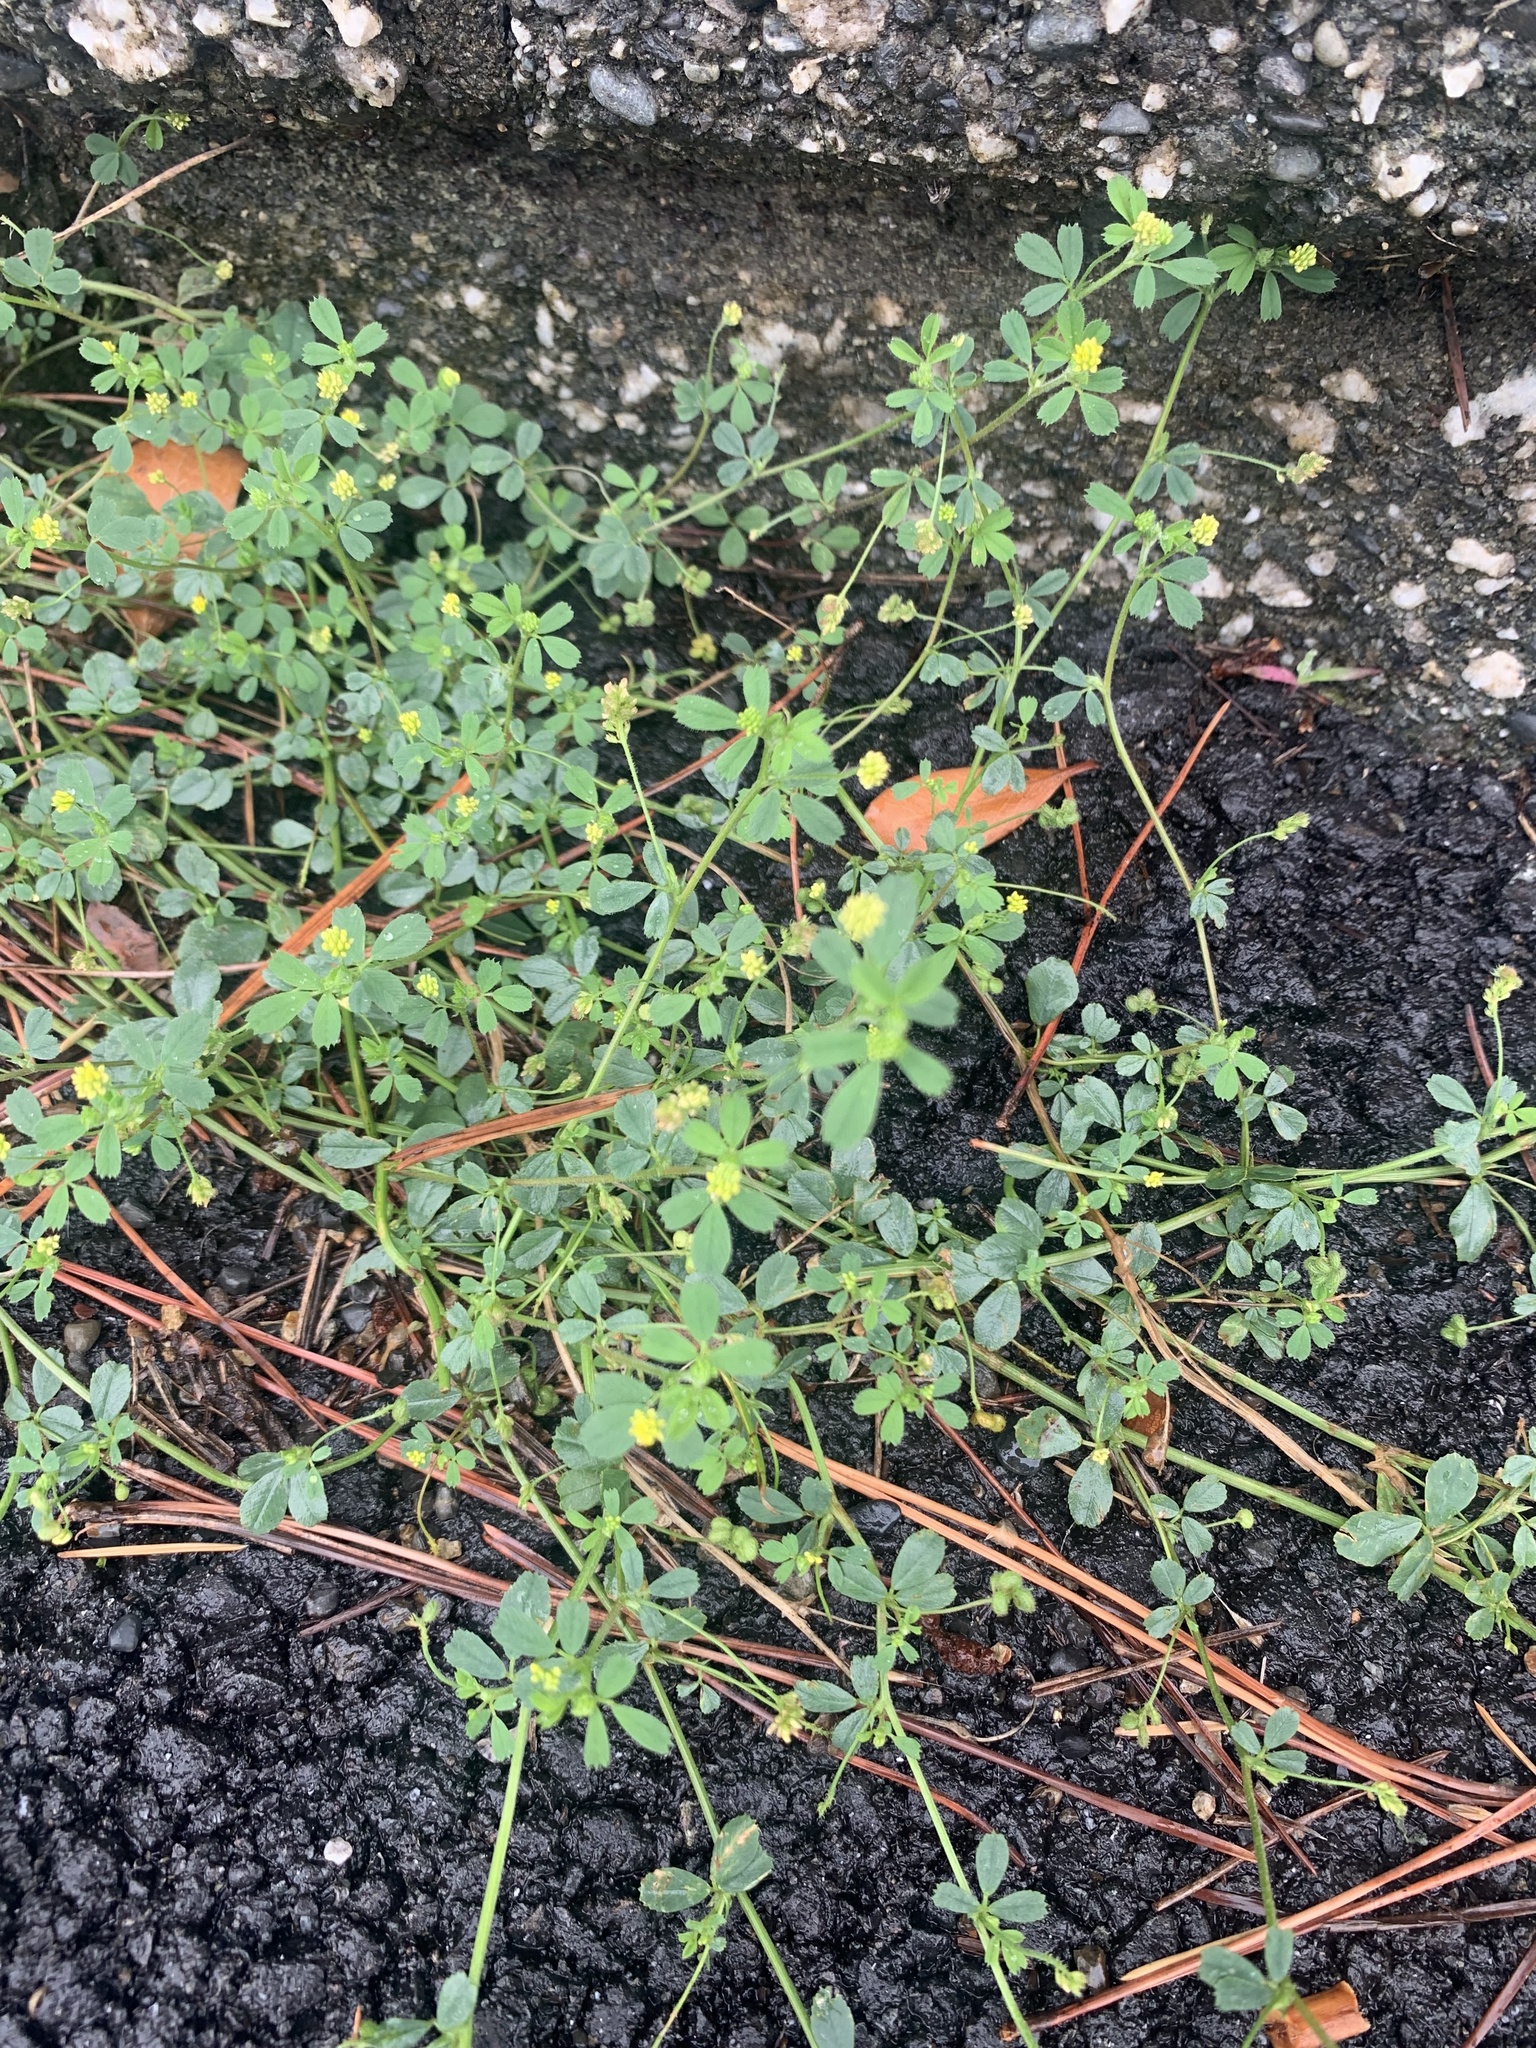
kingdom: Plantae
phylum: Tracheophyta
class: Magnoliopsida
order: Fabales
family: Fabaceae
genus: Medicago
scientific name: Medicago lupulina
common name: Black medick
